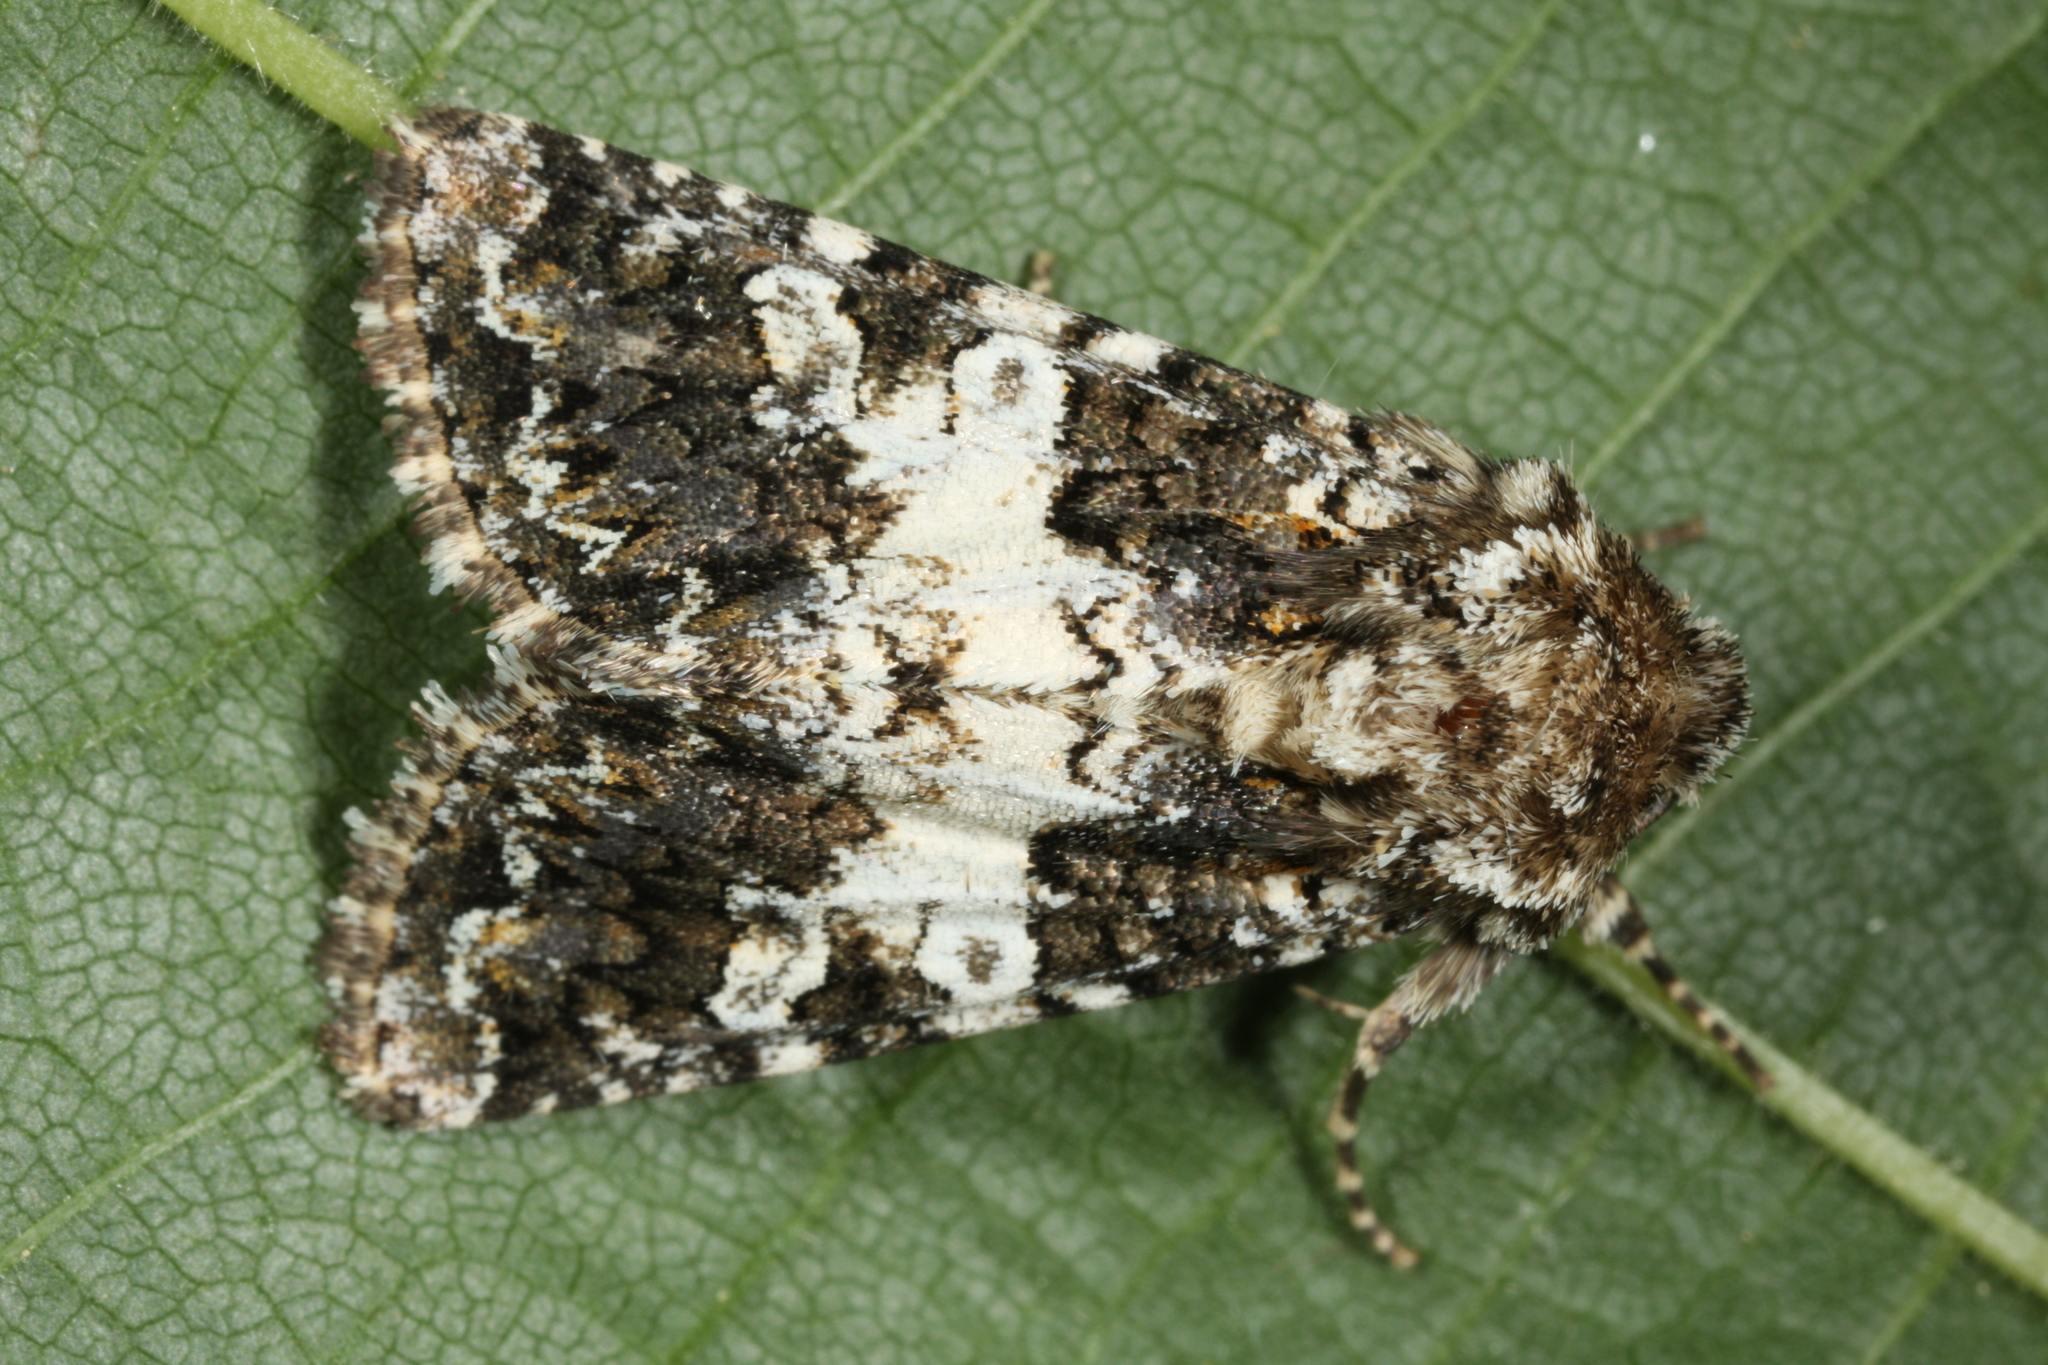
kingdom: Animalia
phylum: Arthropoda
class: Insecta
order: Lepidoptera
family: Noctuidae
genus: Hadena
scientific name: Hadena compta
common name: Varied coronet
